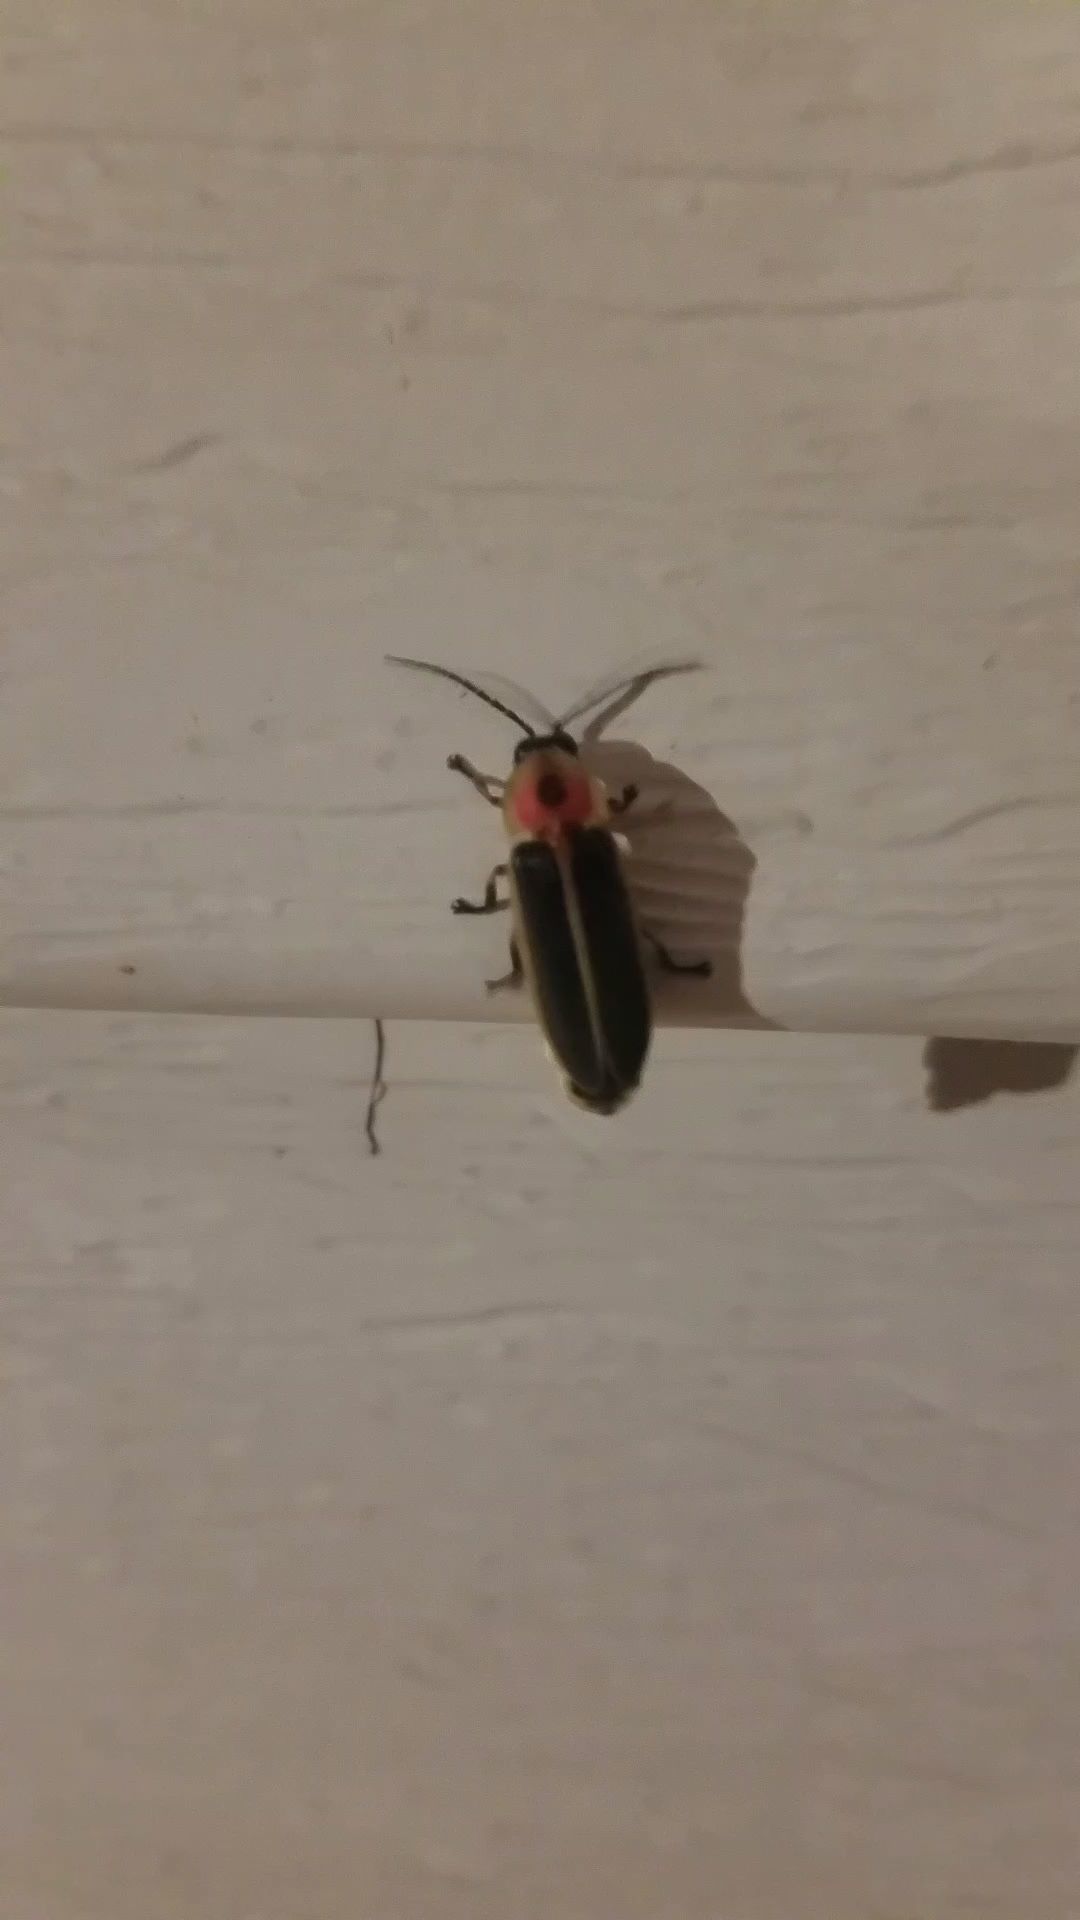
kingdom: Animalia
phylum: Arthropoda
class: Insecta
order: Coleoptera
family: Lampyridae
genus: Photinus
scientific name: Photinus pyralis
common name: Big dipper firefly
